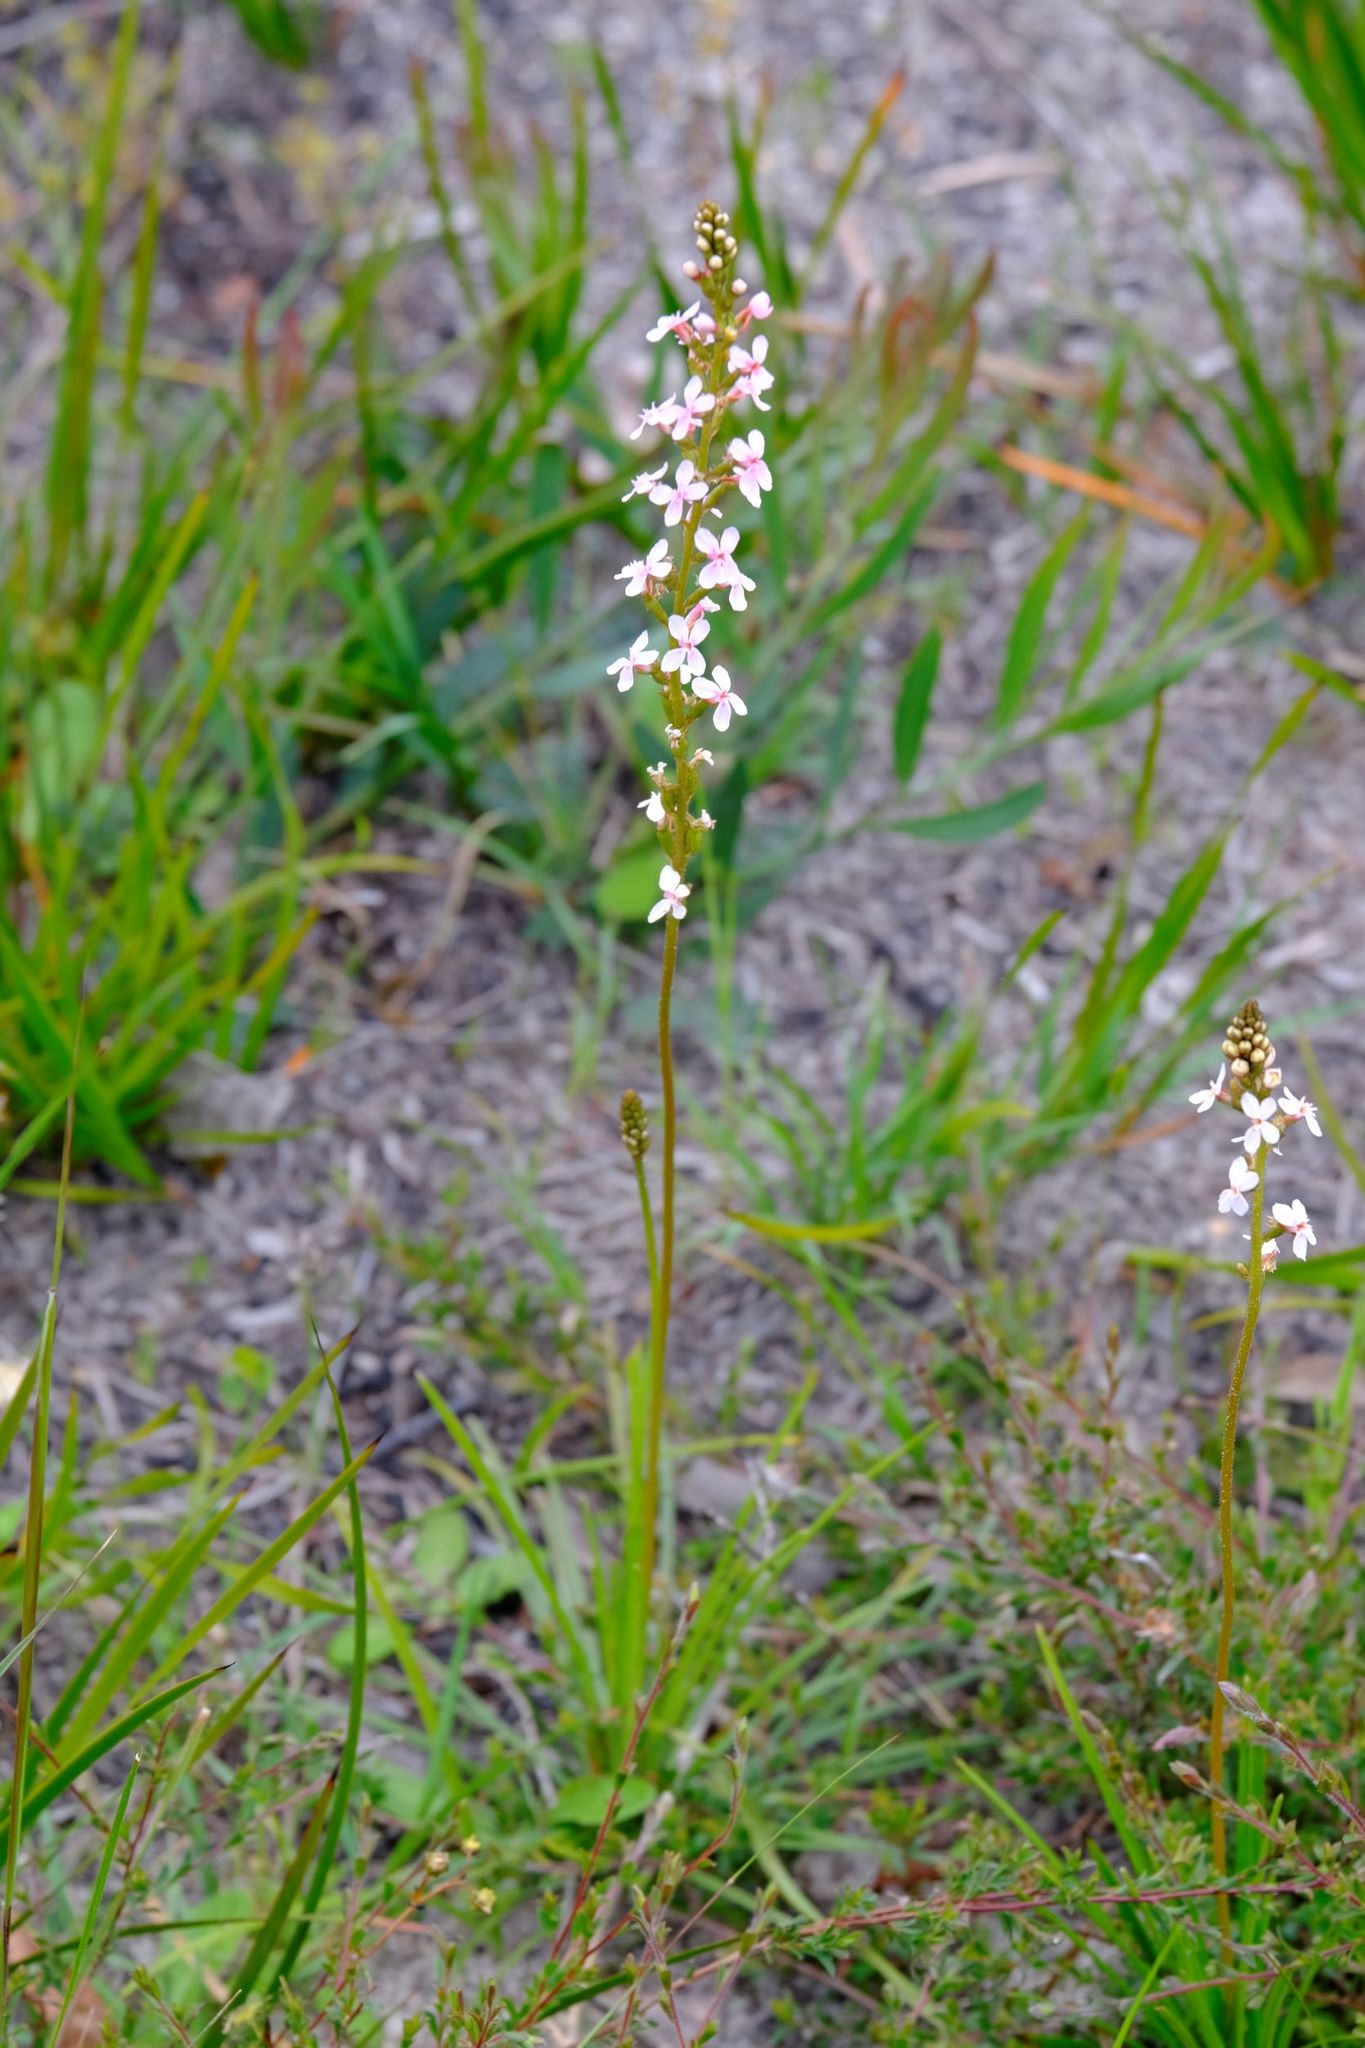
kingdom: Plantae
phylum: Tracheophyta
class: Magnoliopsida
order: Asterales
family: Stylidiaceae
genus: Stylidium
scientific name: Stylidium graminifolium
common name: Grass triggerplant
